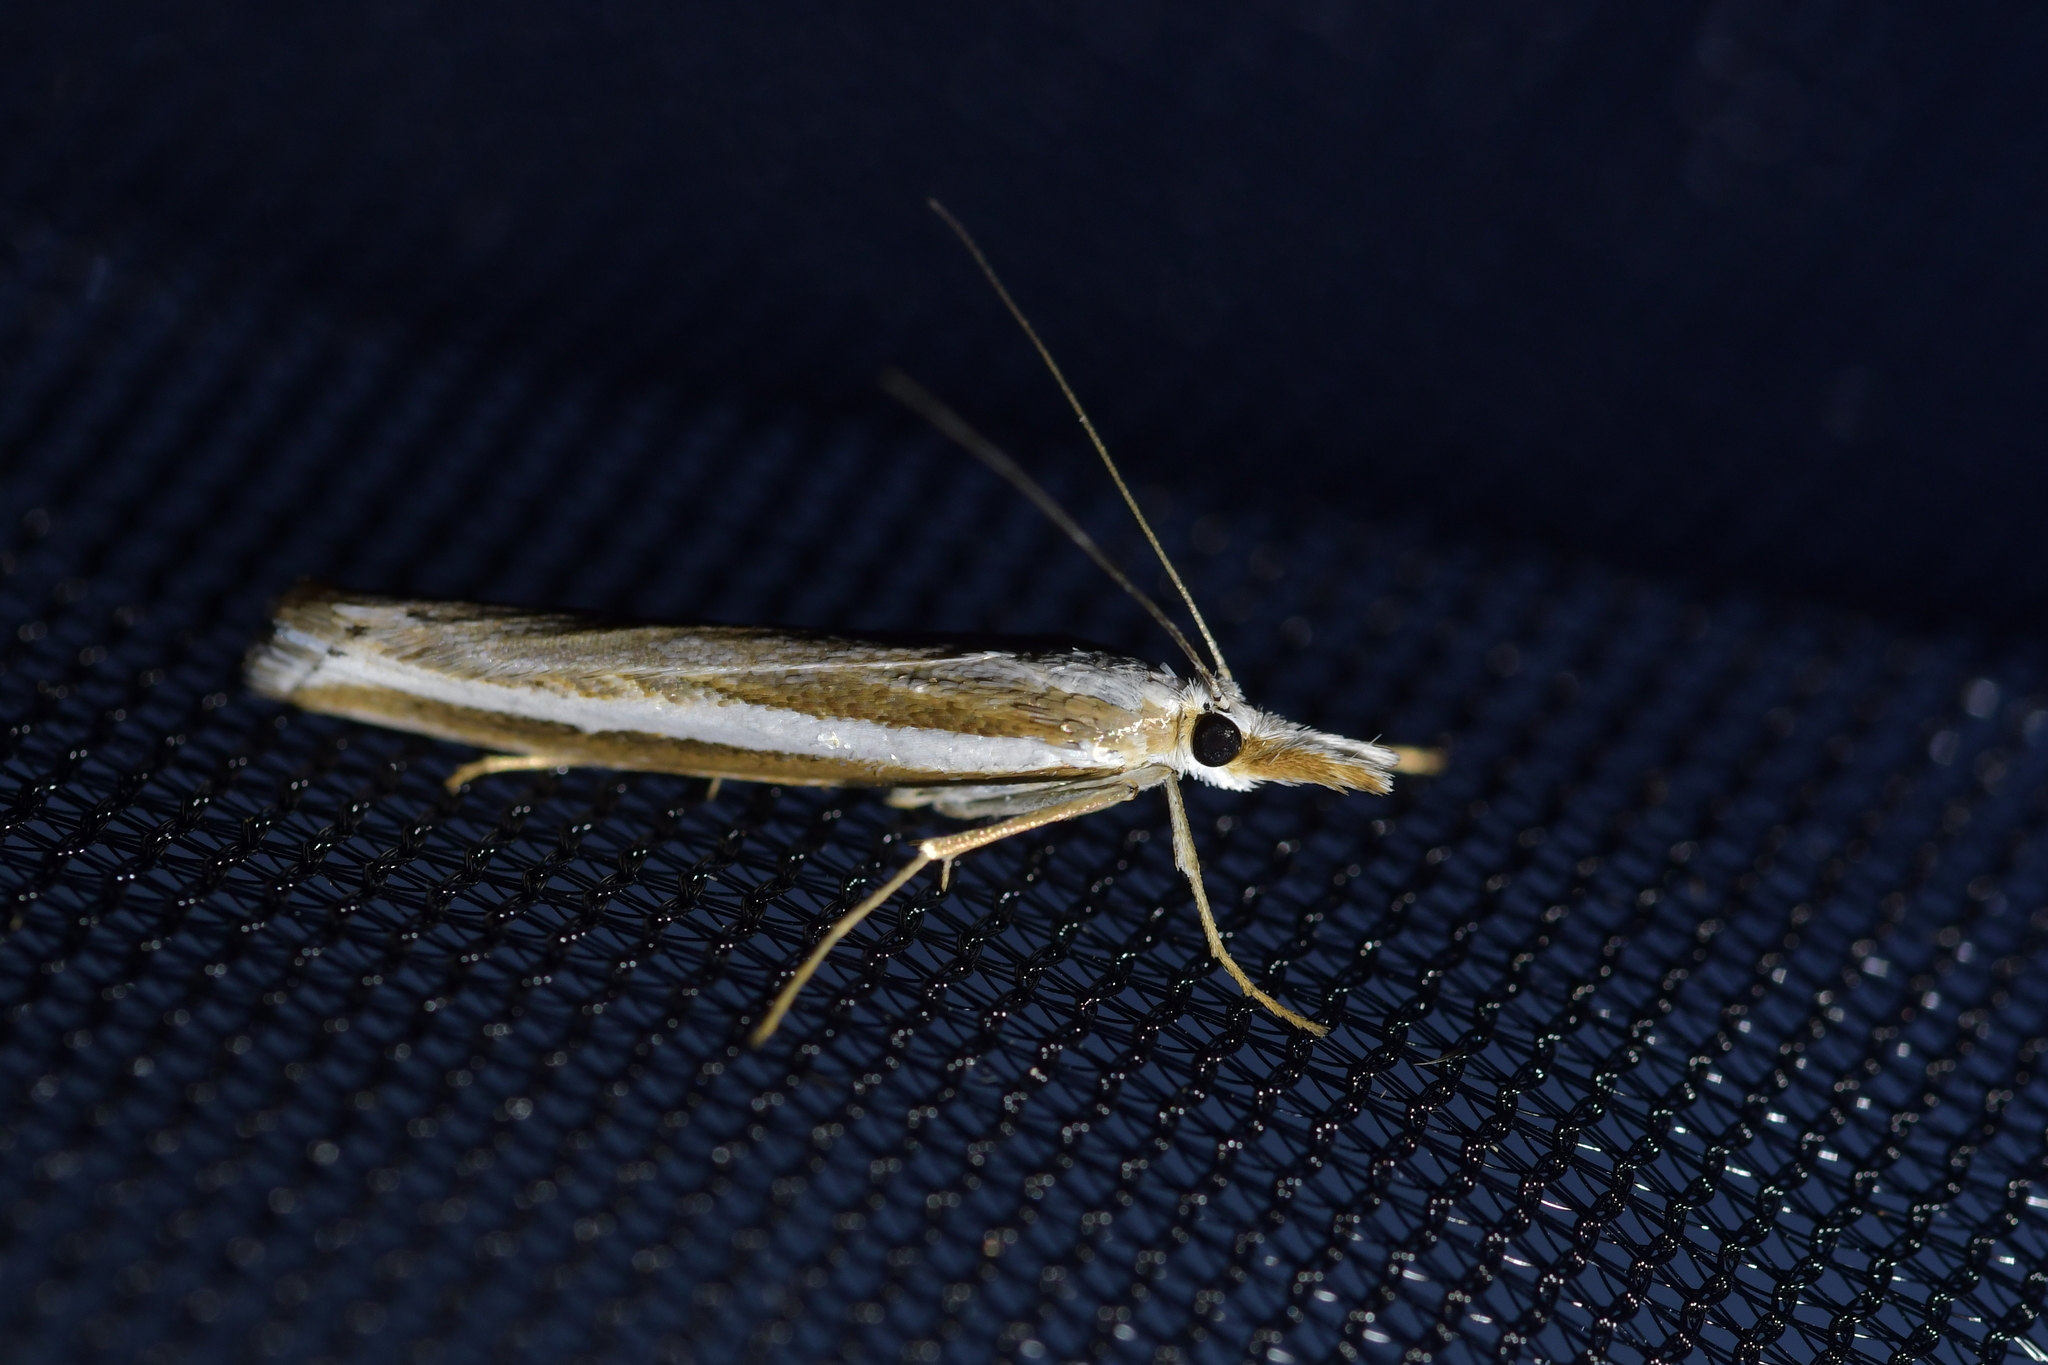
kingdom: Animalia
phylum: Arthropoda
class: Insecta
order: Lepidoptera
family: Crambidae
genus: Orocrambus
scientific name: Orocrambus vittellus
